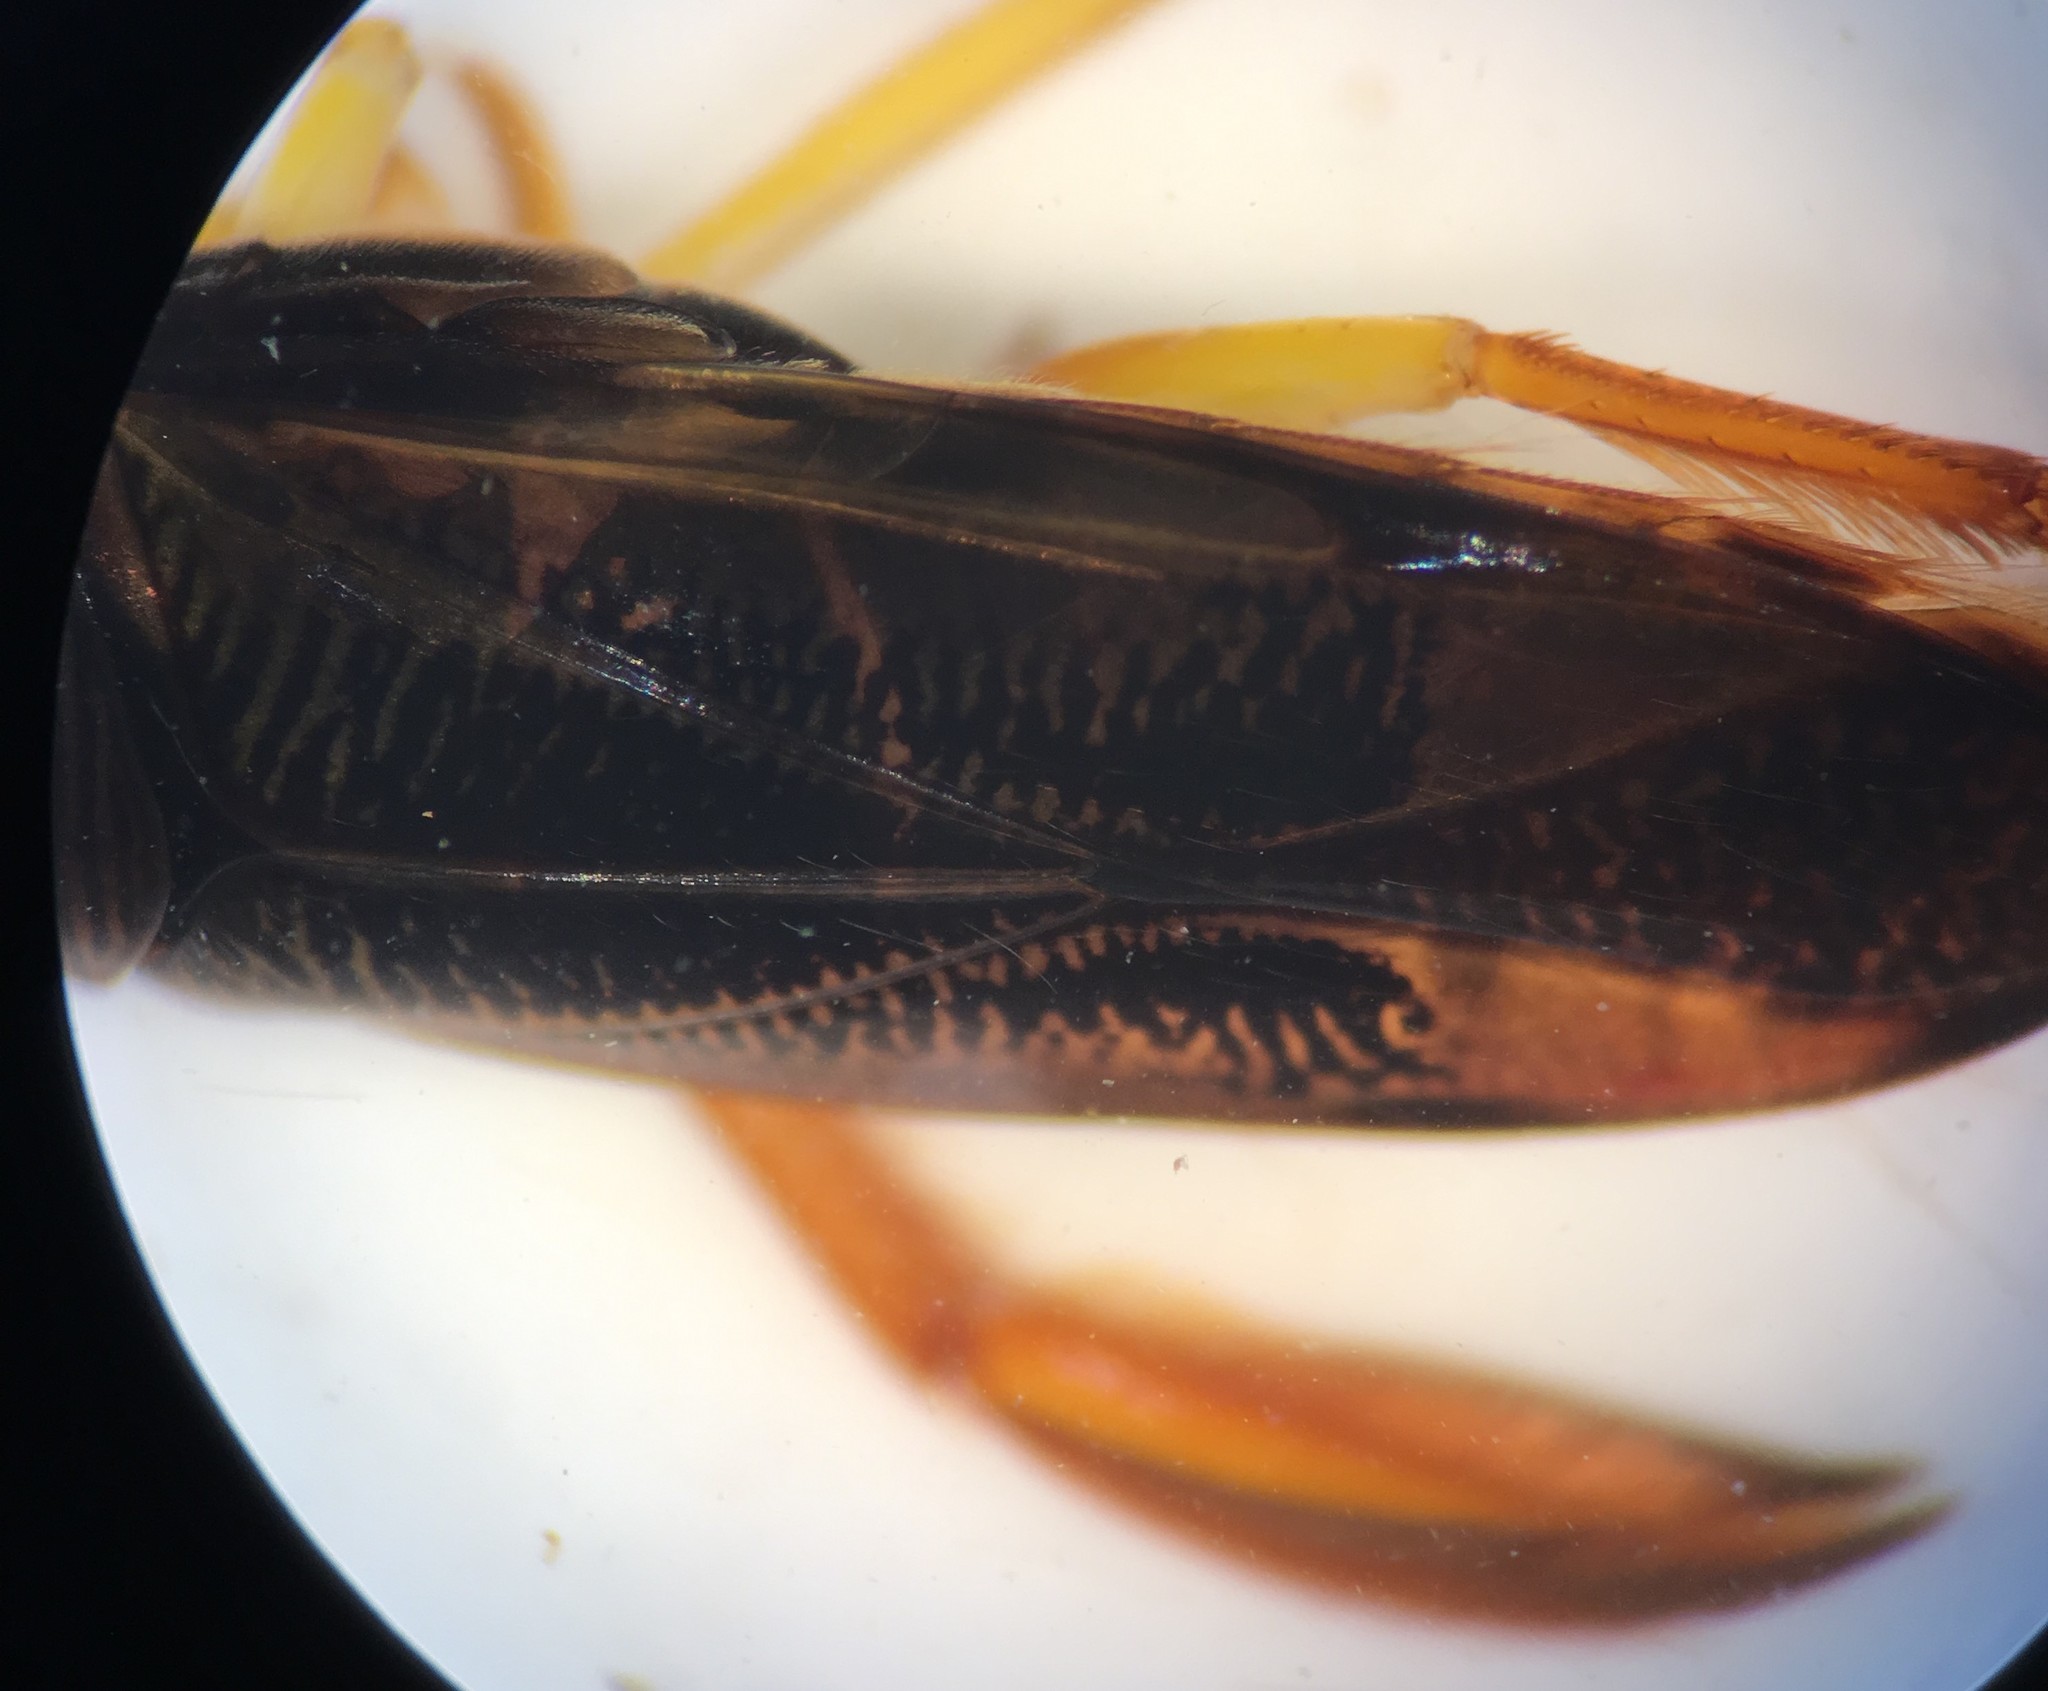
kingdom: Animalia
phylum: Arthropoda
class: Insecta
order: Hemiptera
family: Corixidae
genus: Hesperocorixa
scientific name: Hesperocorixa lucida
